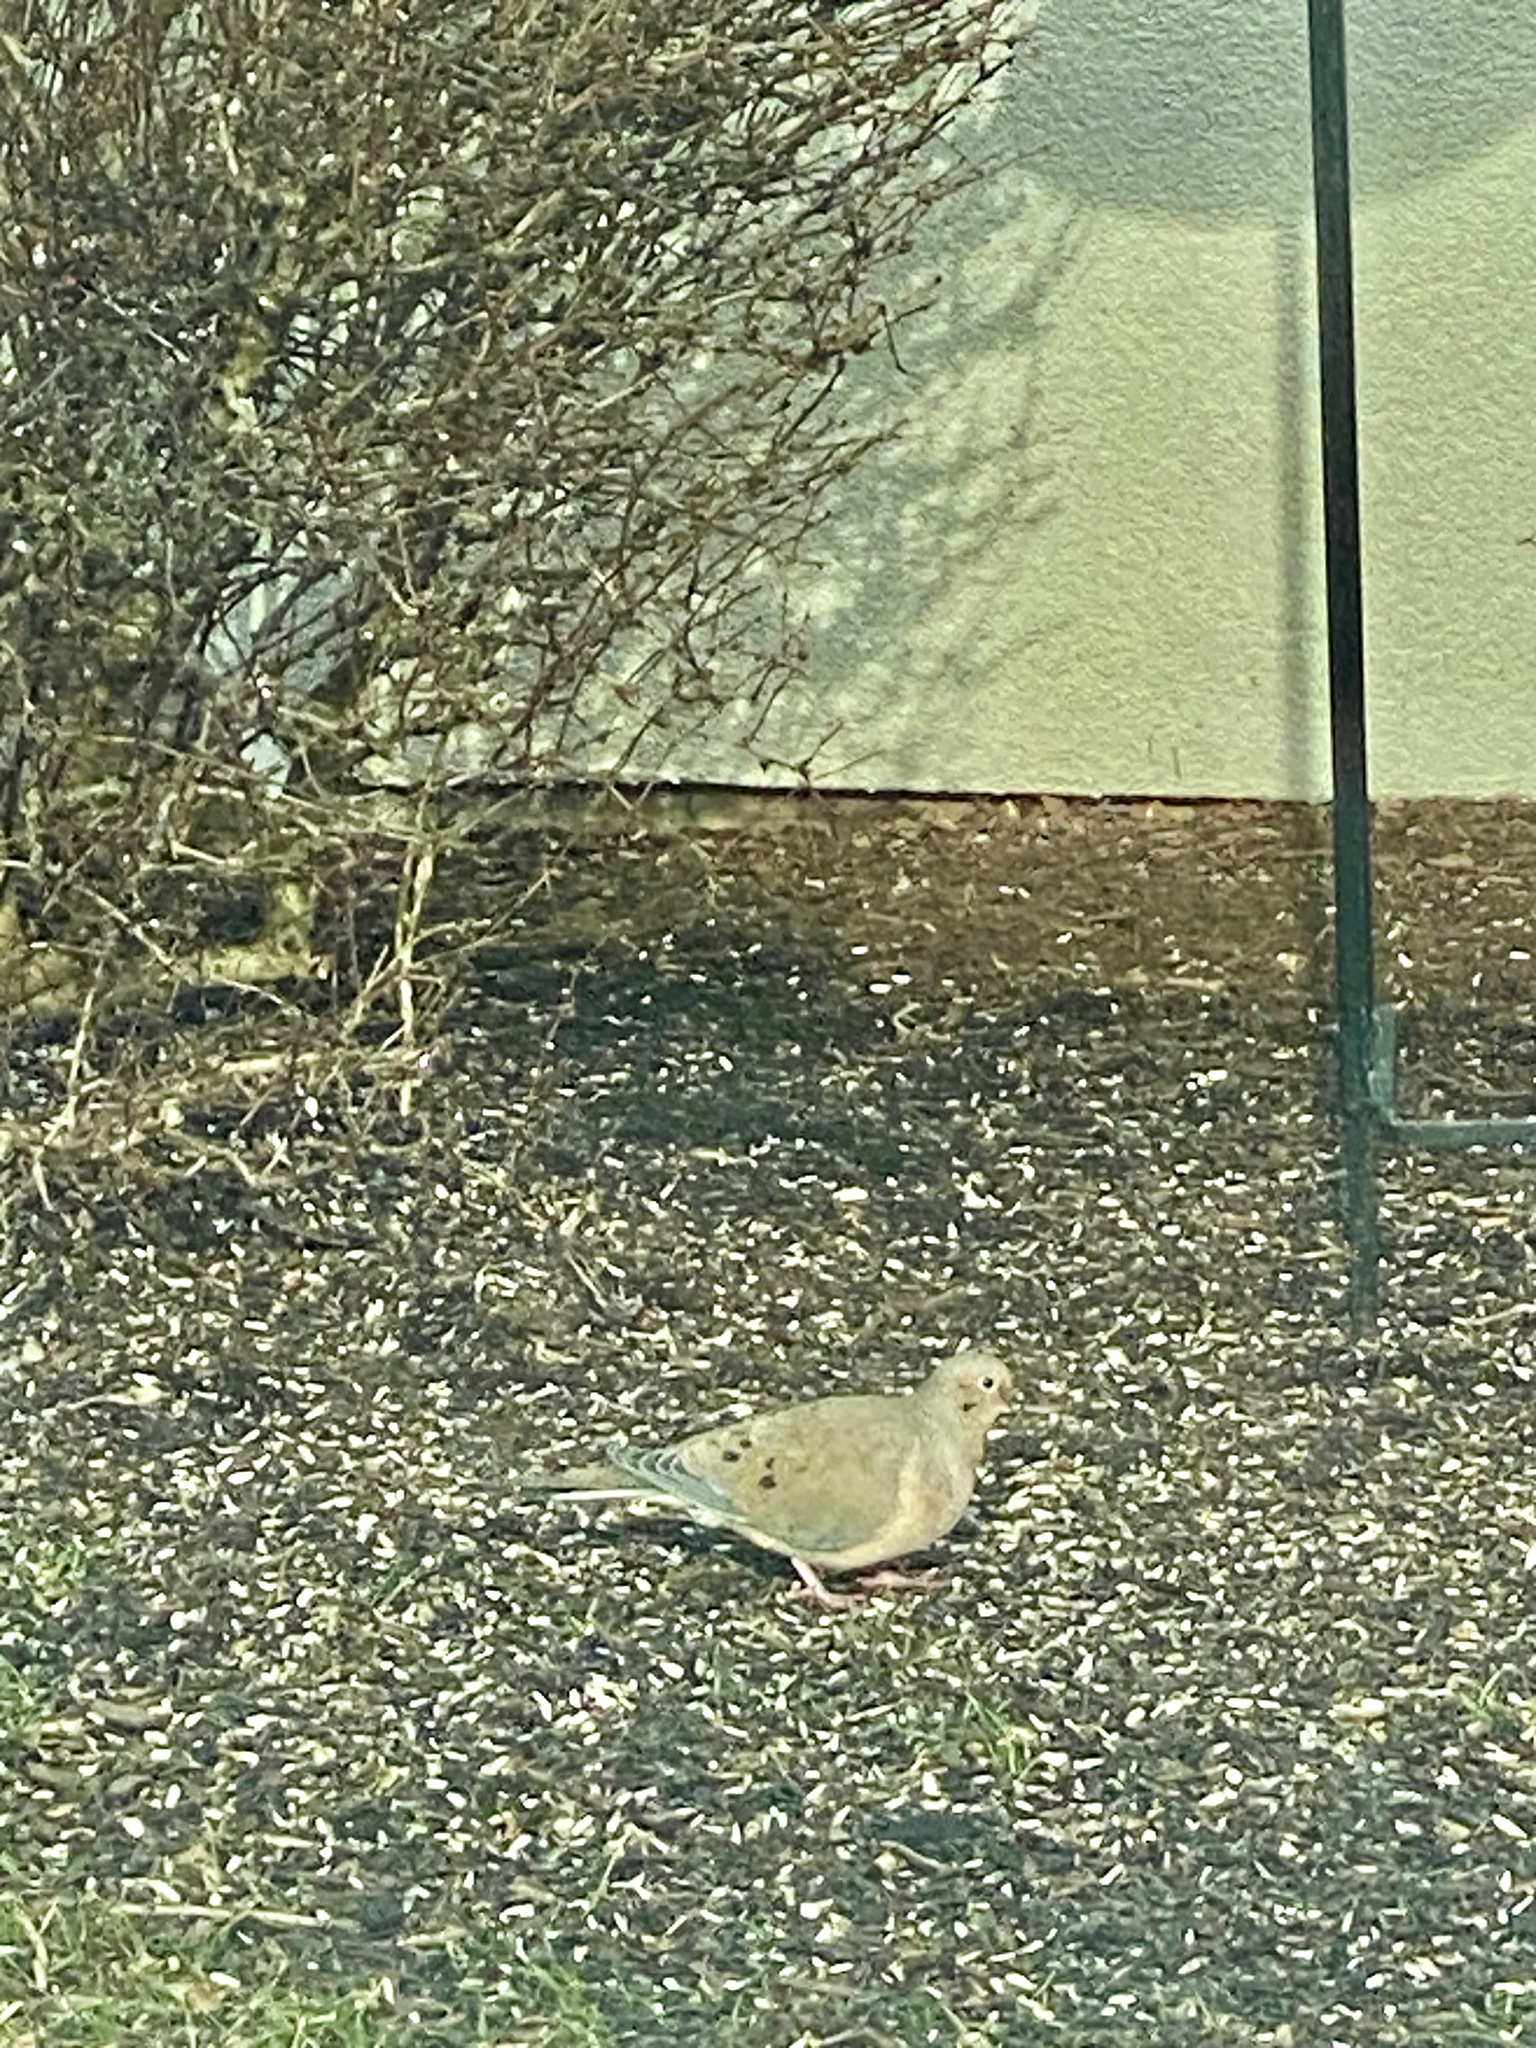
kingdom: Animalia
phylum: Chordata
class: Aves
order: Columbiformes
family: Columbidae
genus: Zenaida
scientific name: Zenaida macroura
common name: Mourning dove
